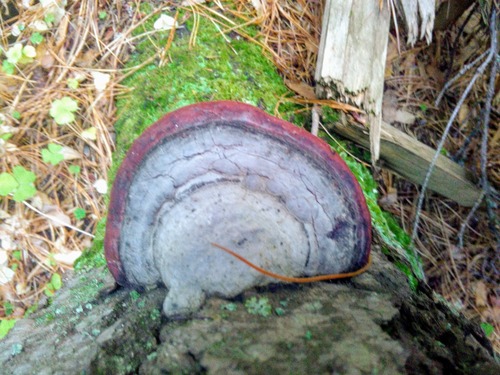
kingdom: Fungi
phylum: Basidiomycota
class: Agaricomycetes
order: Polyporales
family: Fomitopsidaceae
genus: Fomitopsis
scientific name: Fomitopsis pinicola
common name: Red-belted bracket
